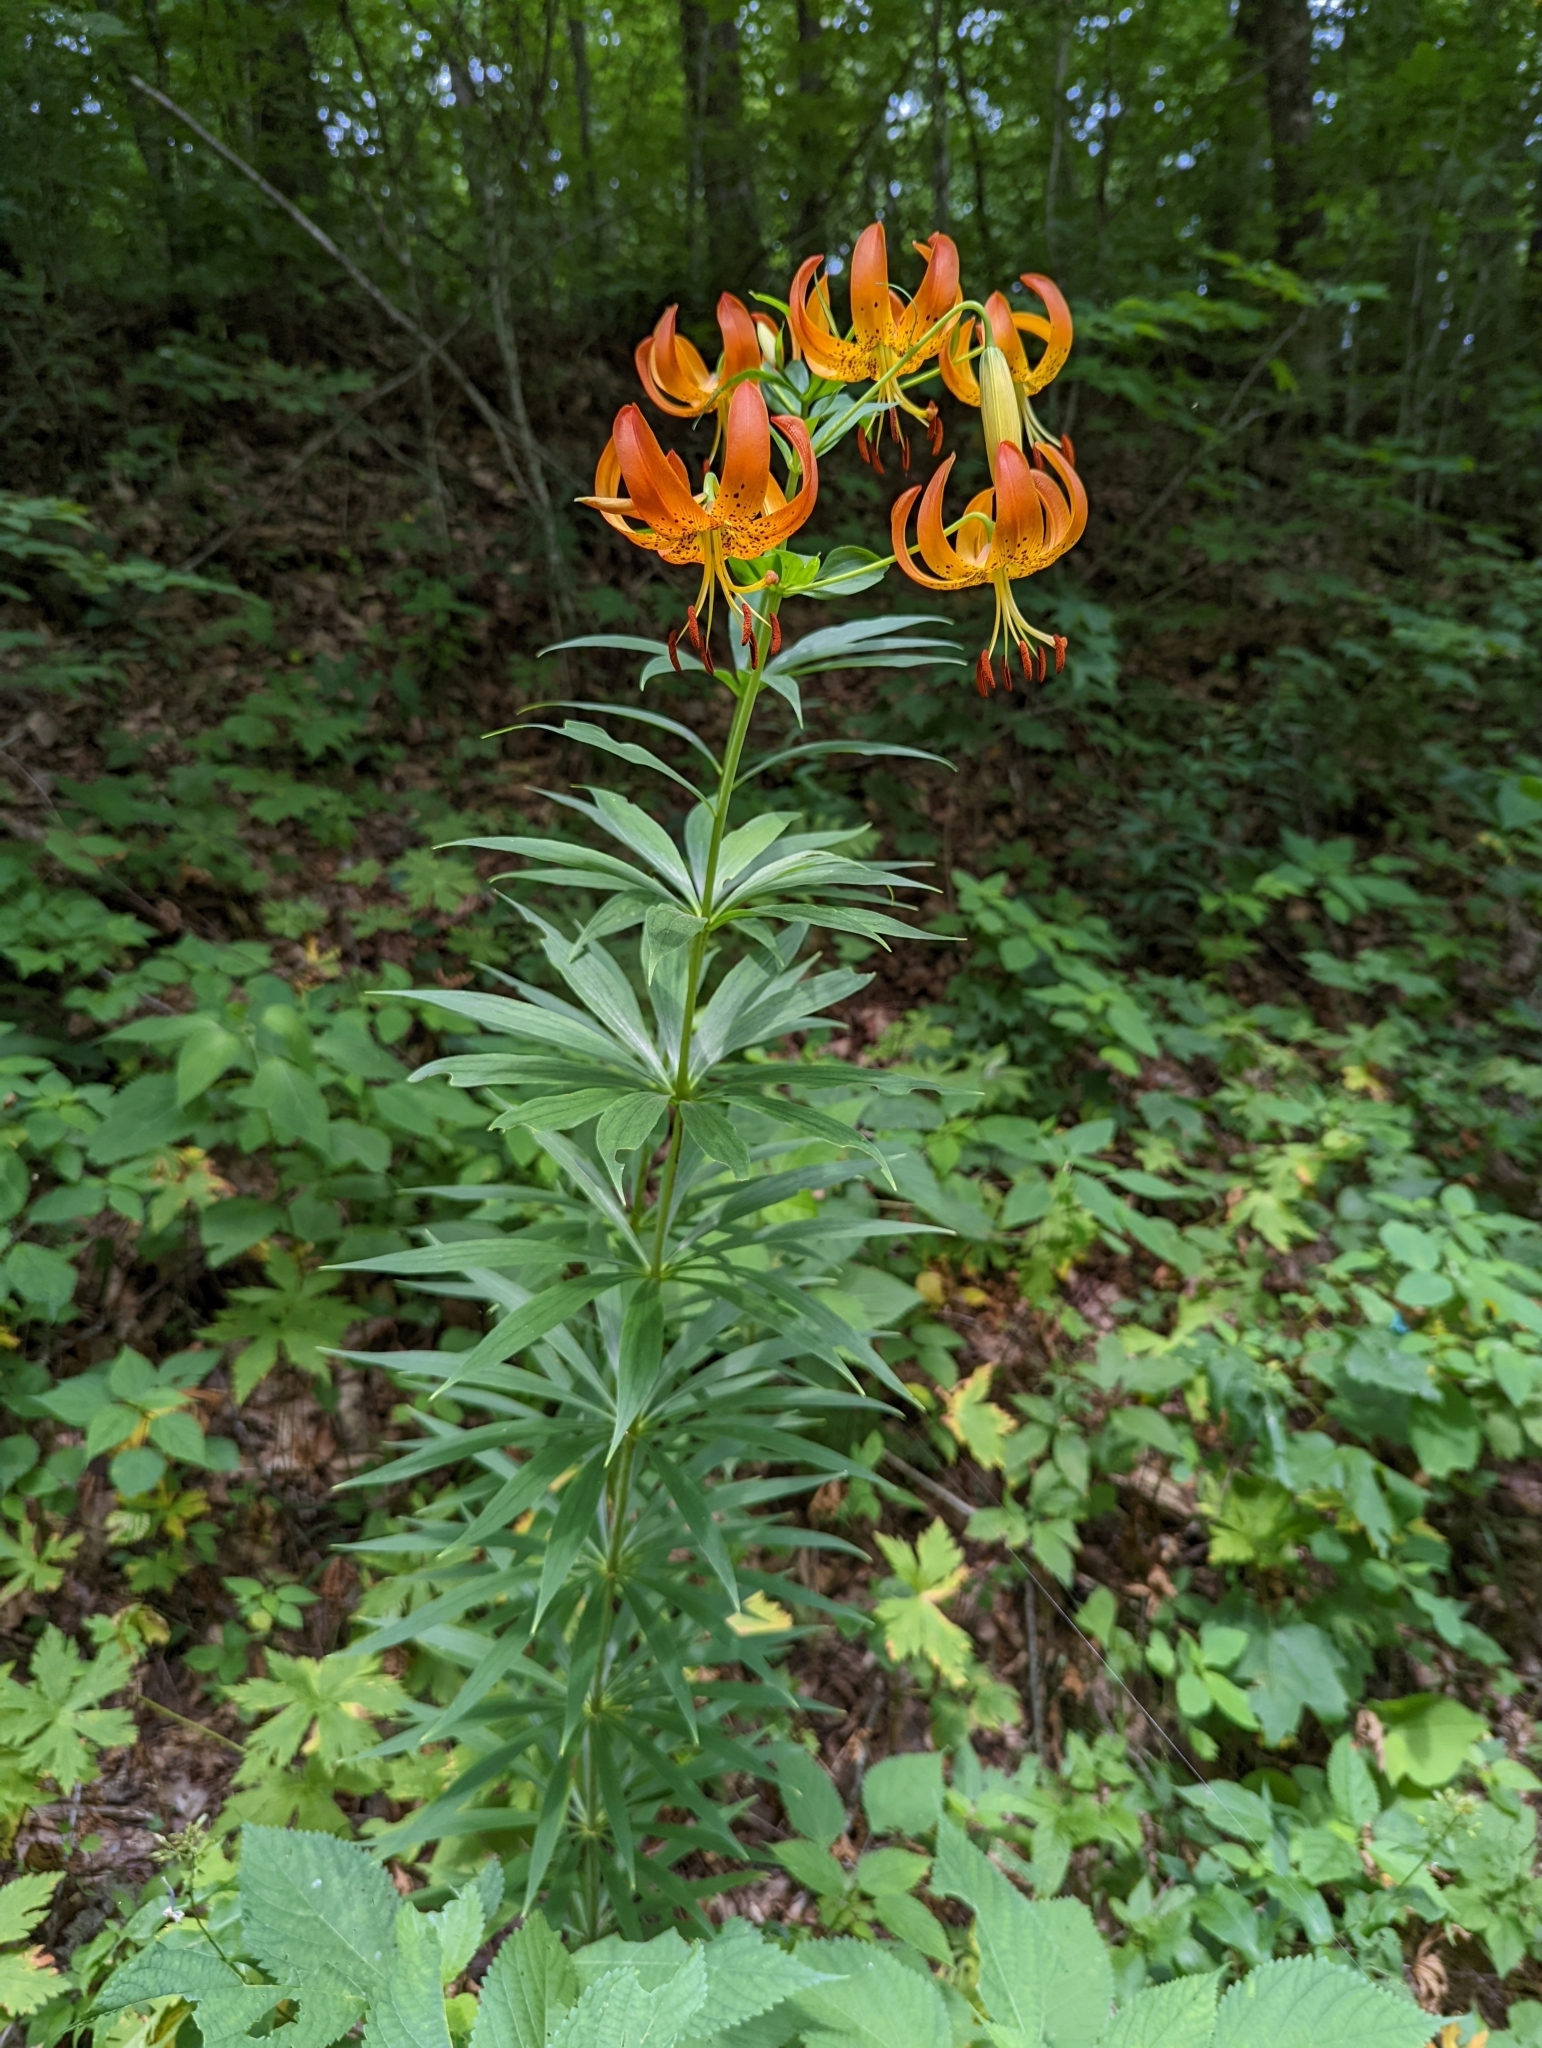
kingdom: Plantae
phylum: Tracheophyta
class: Liliopsida
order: Liliales
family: Liliaceae
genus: Lilium
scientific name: Lilium superbum
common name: American turk's-cap lily
